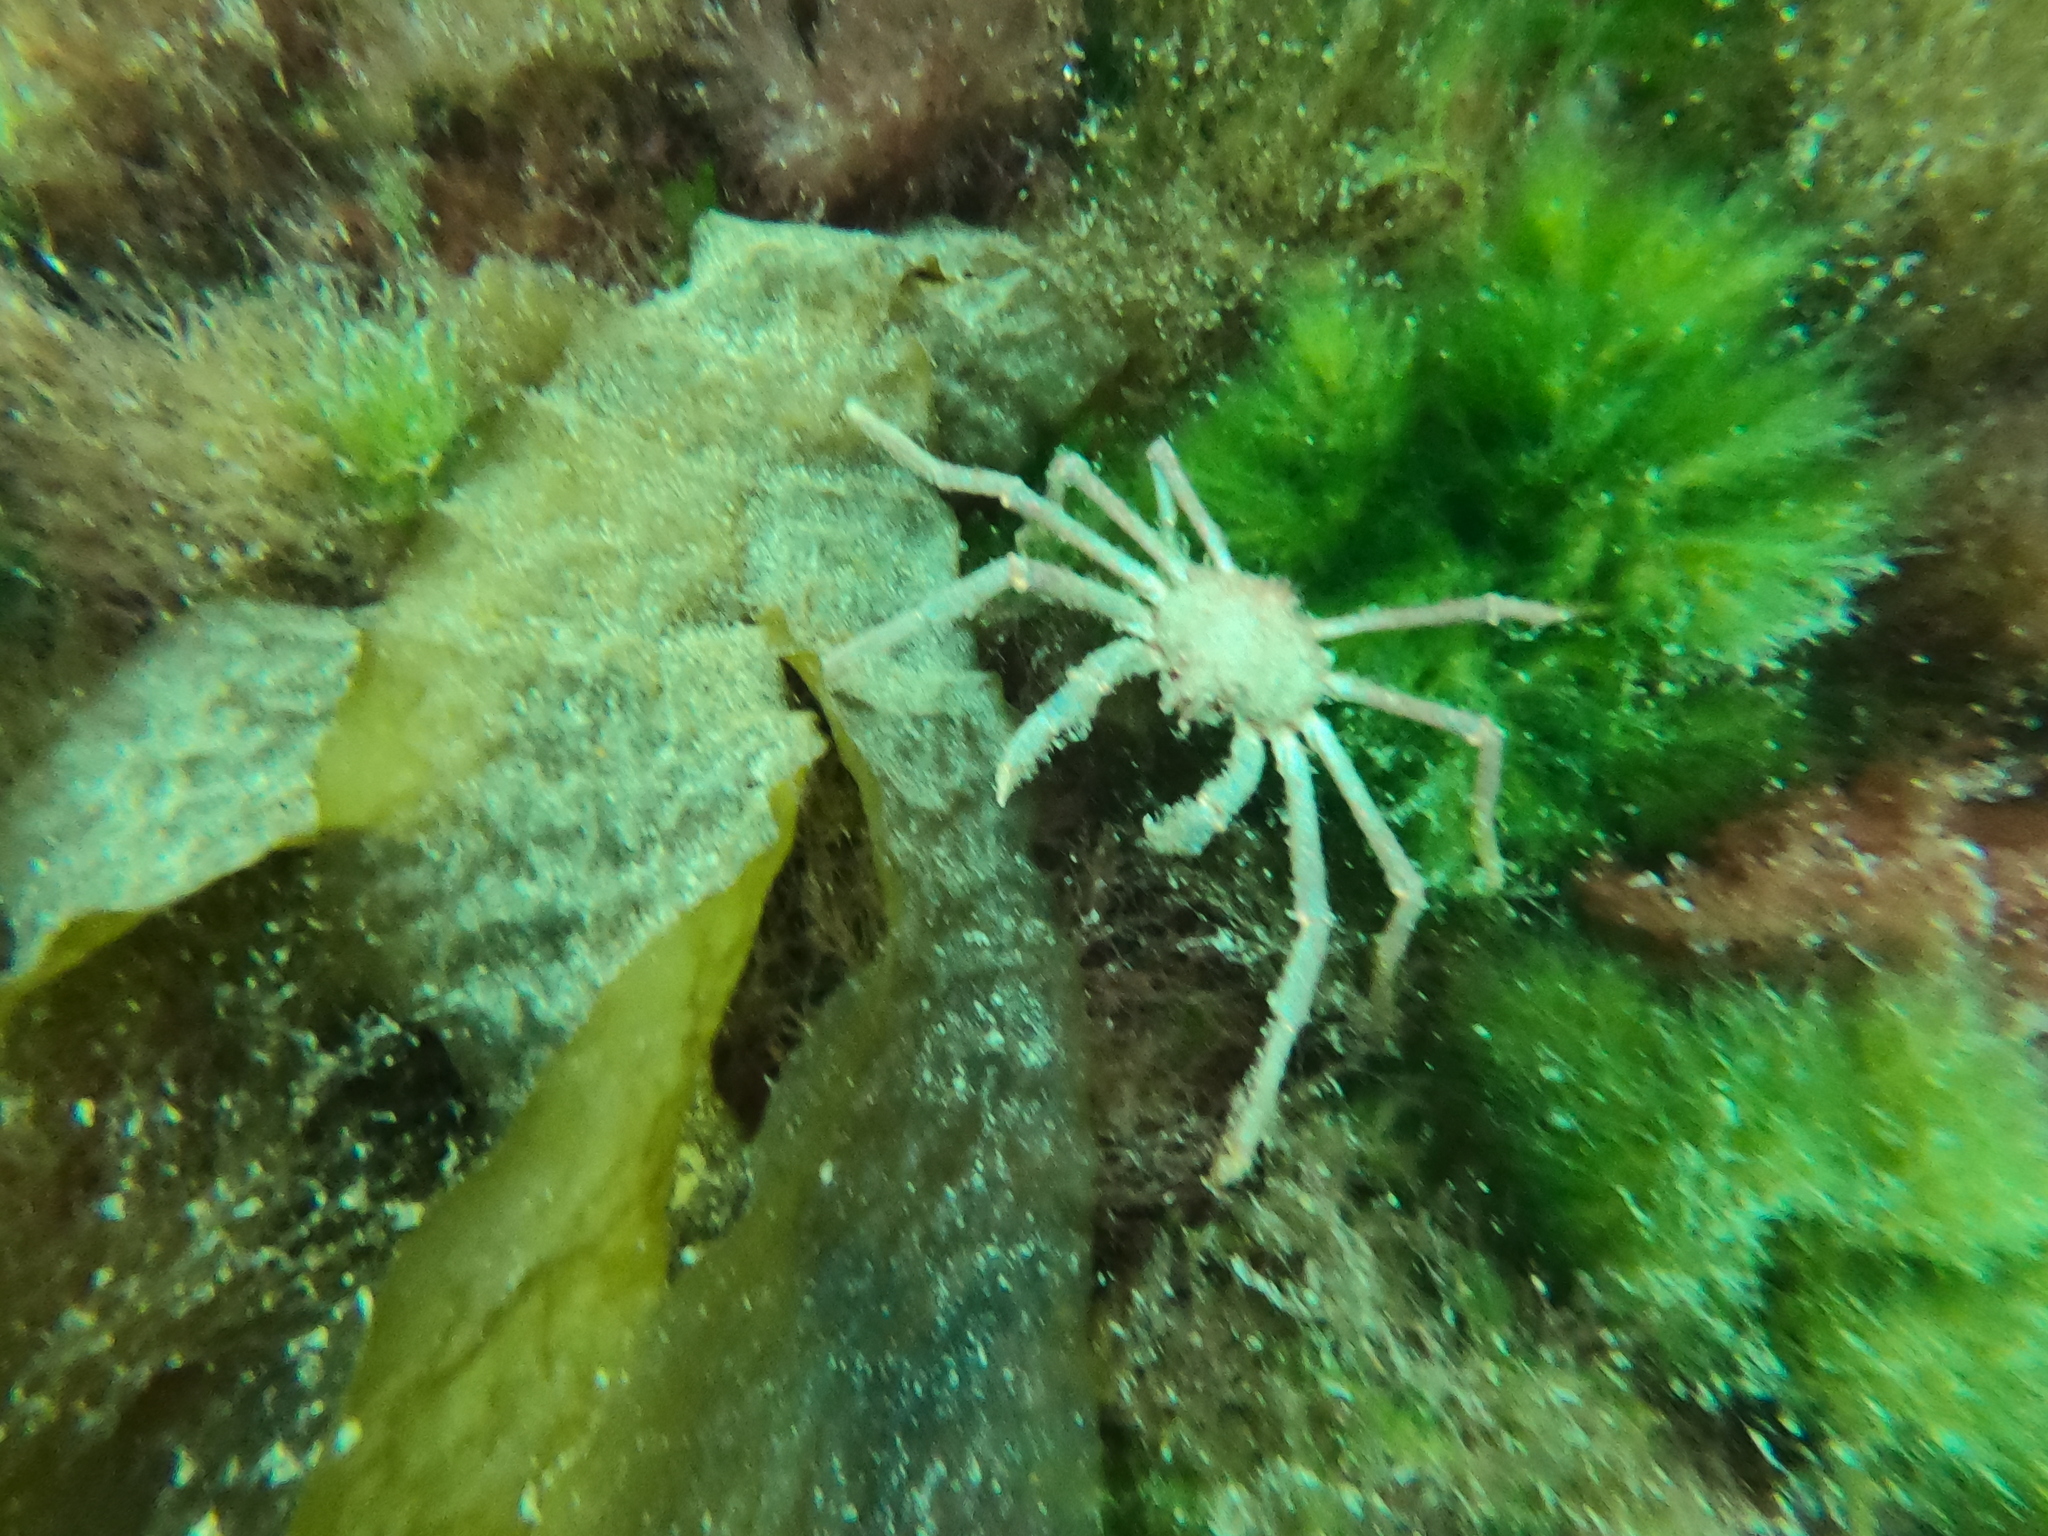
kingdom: Animalia
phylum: Arthropoda
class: Malacostraca
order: Decapoda
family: Inachidae
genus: Eurypodius
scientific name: Eurypodius longirostris
